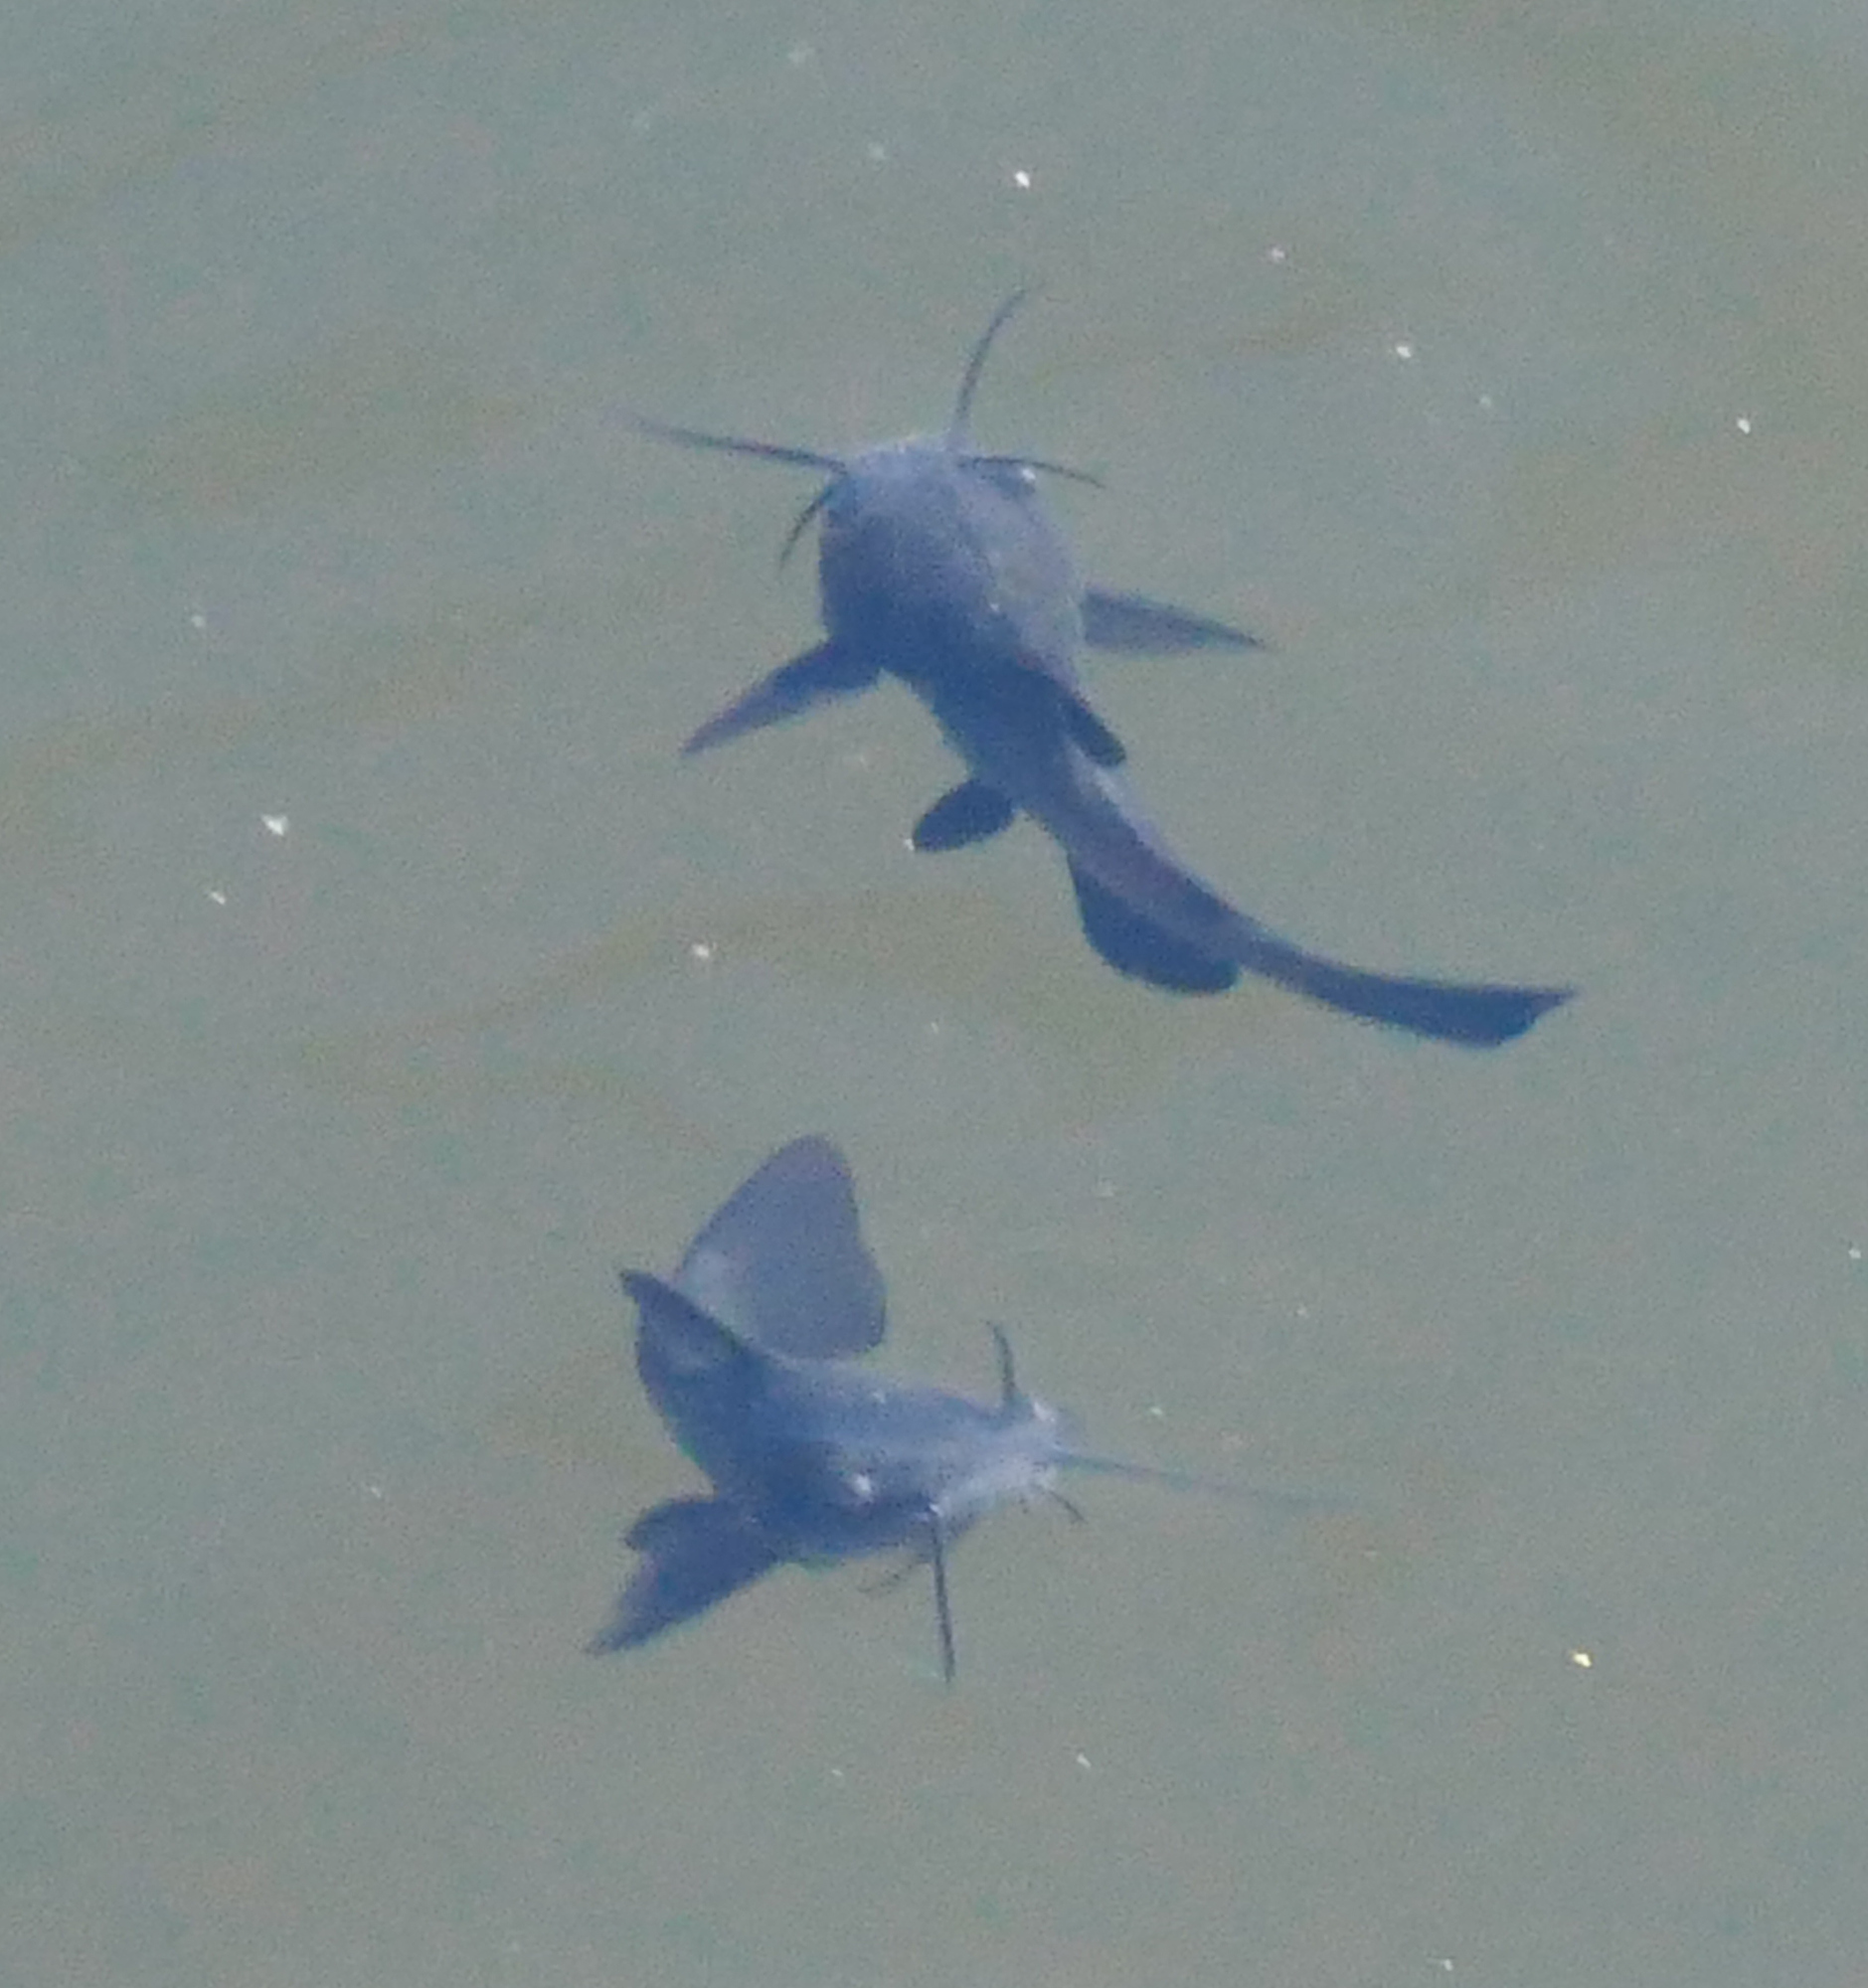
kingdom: Animalia
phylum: Chordata
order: Siluriformes
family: Ictaluridae
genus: Ameiurus
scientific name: Ameiurus melas
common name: Black bullhead
